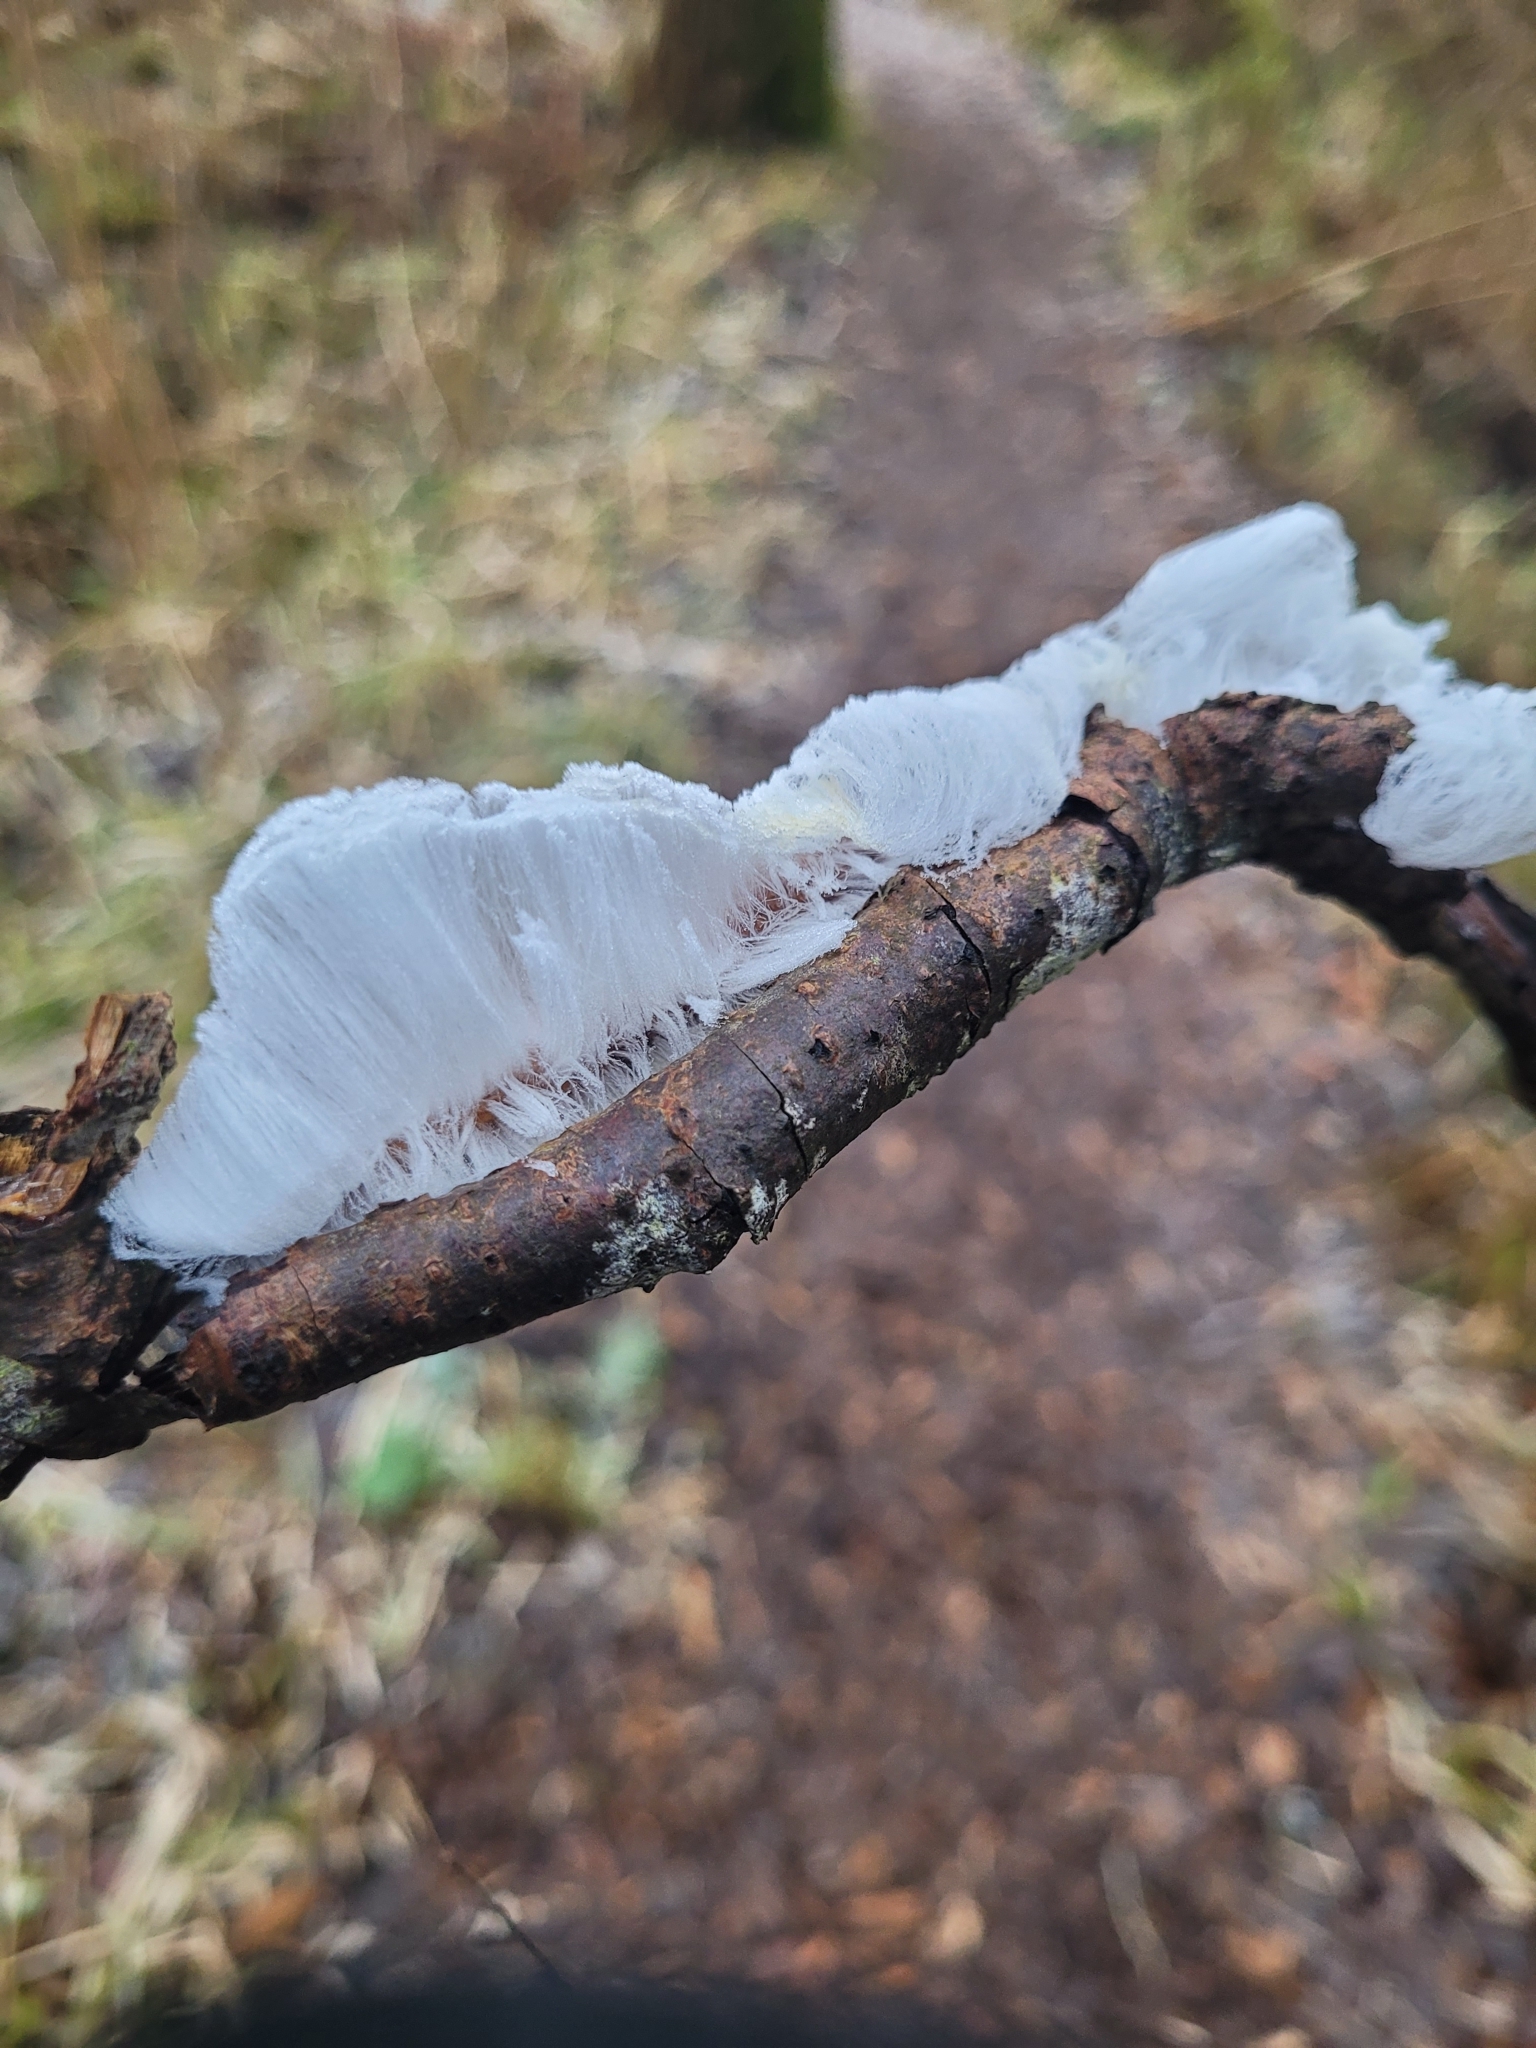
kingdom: Fungi
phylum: Basidiomycota
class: Agaricomycetes
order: Auriculariales
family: Auriculariaceae
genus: Exidiopsis
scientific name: Exidiopsis effusa
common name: Hair ice crust
